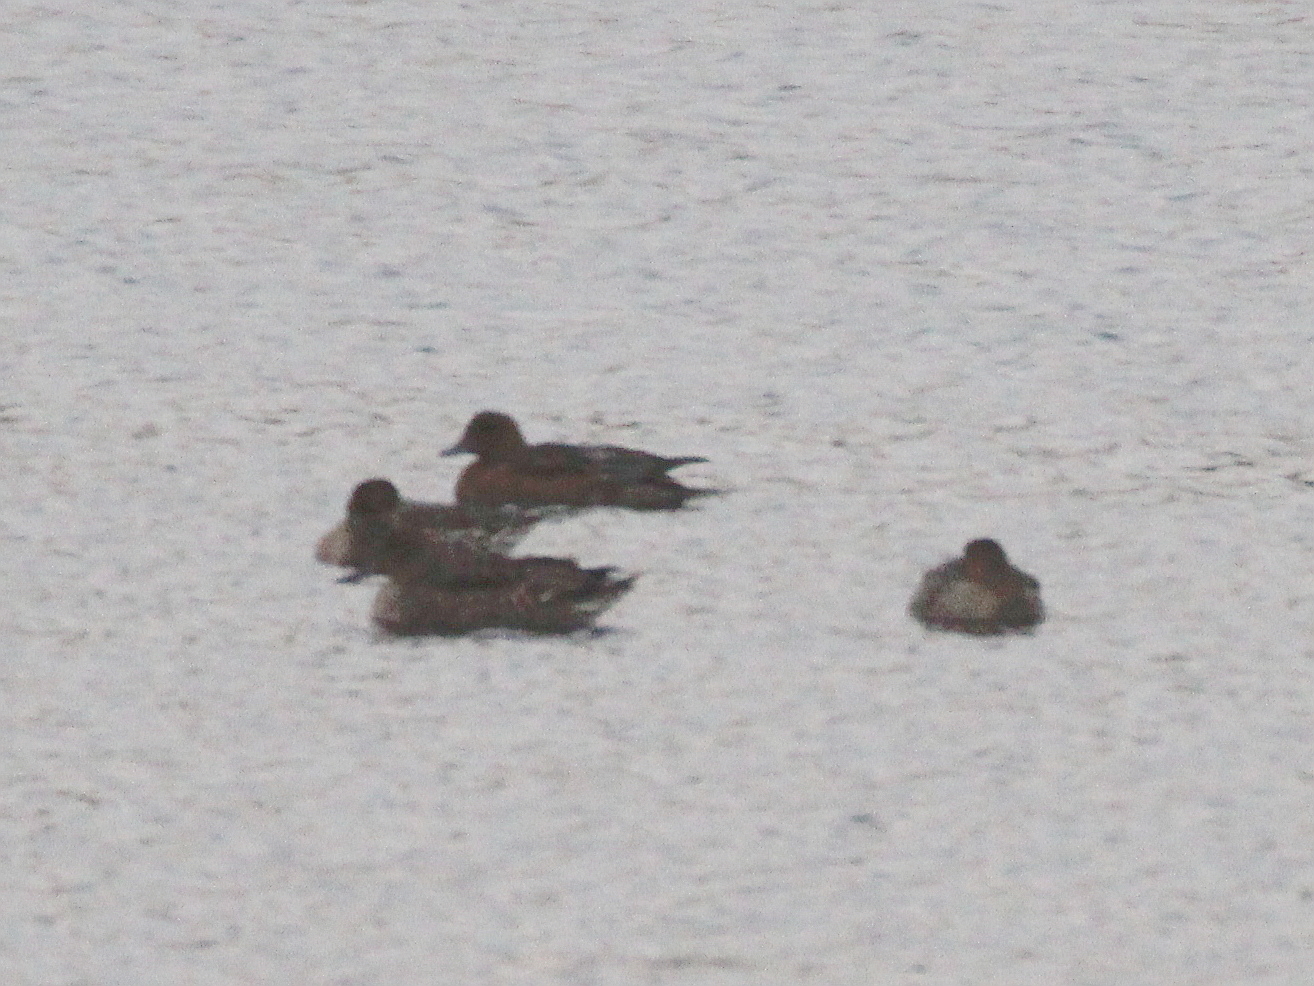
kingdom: Animalia
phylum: Chordata
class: Aves
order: Anseriformes
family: Anatidae
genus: Mareca
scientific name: Mareca penelope
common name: Eurasian wigeon
